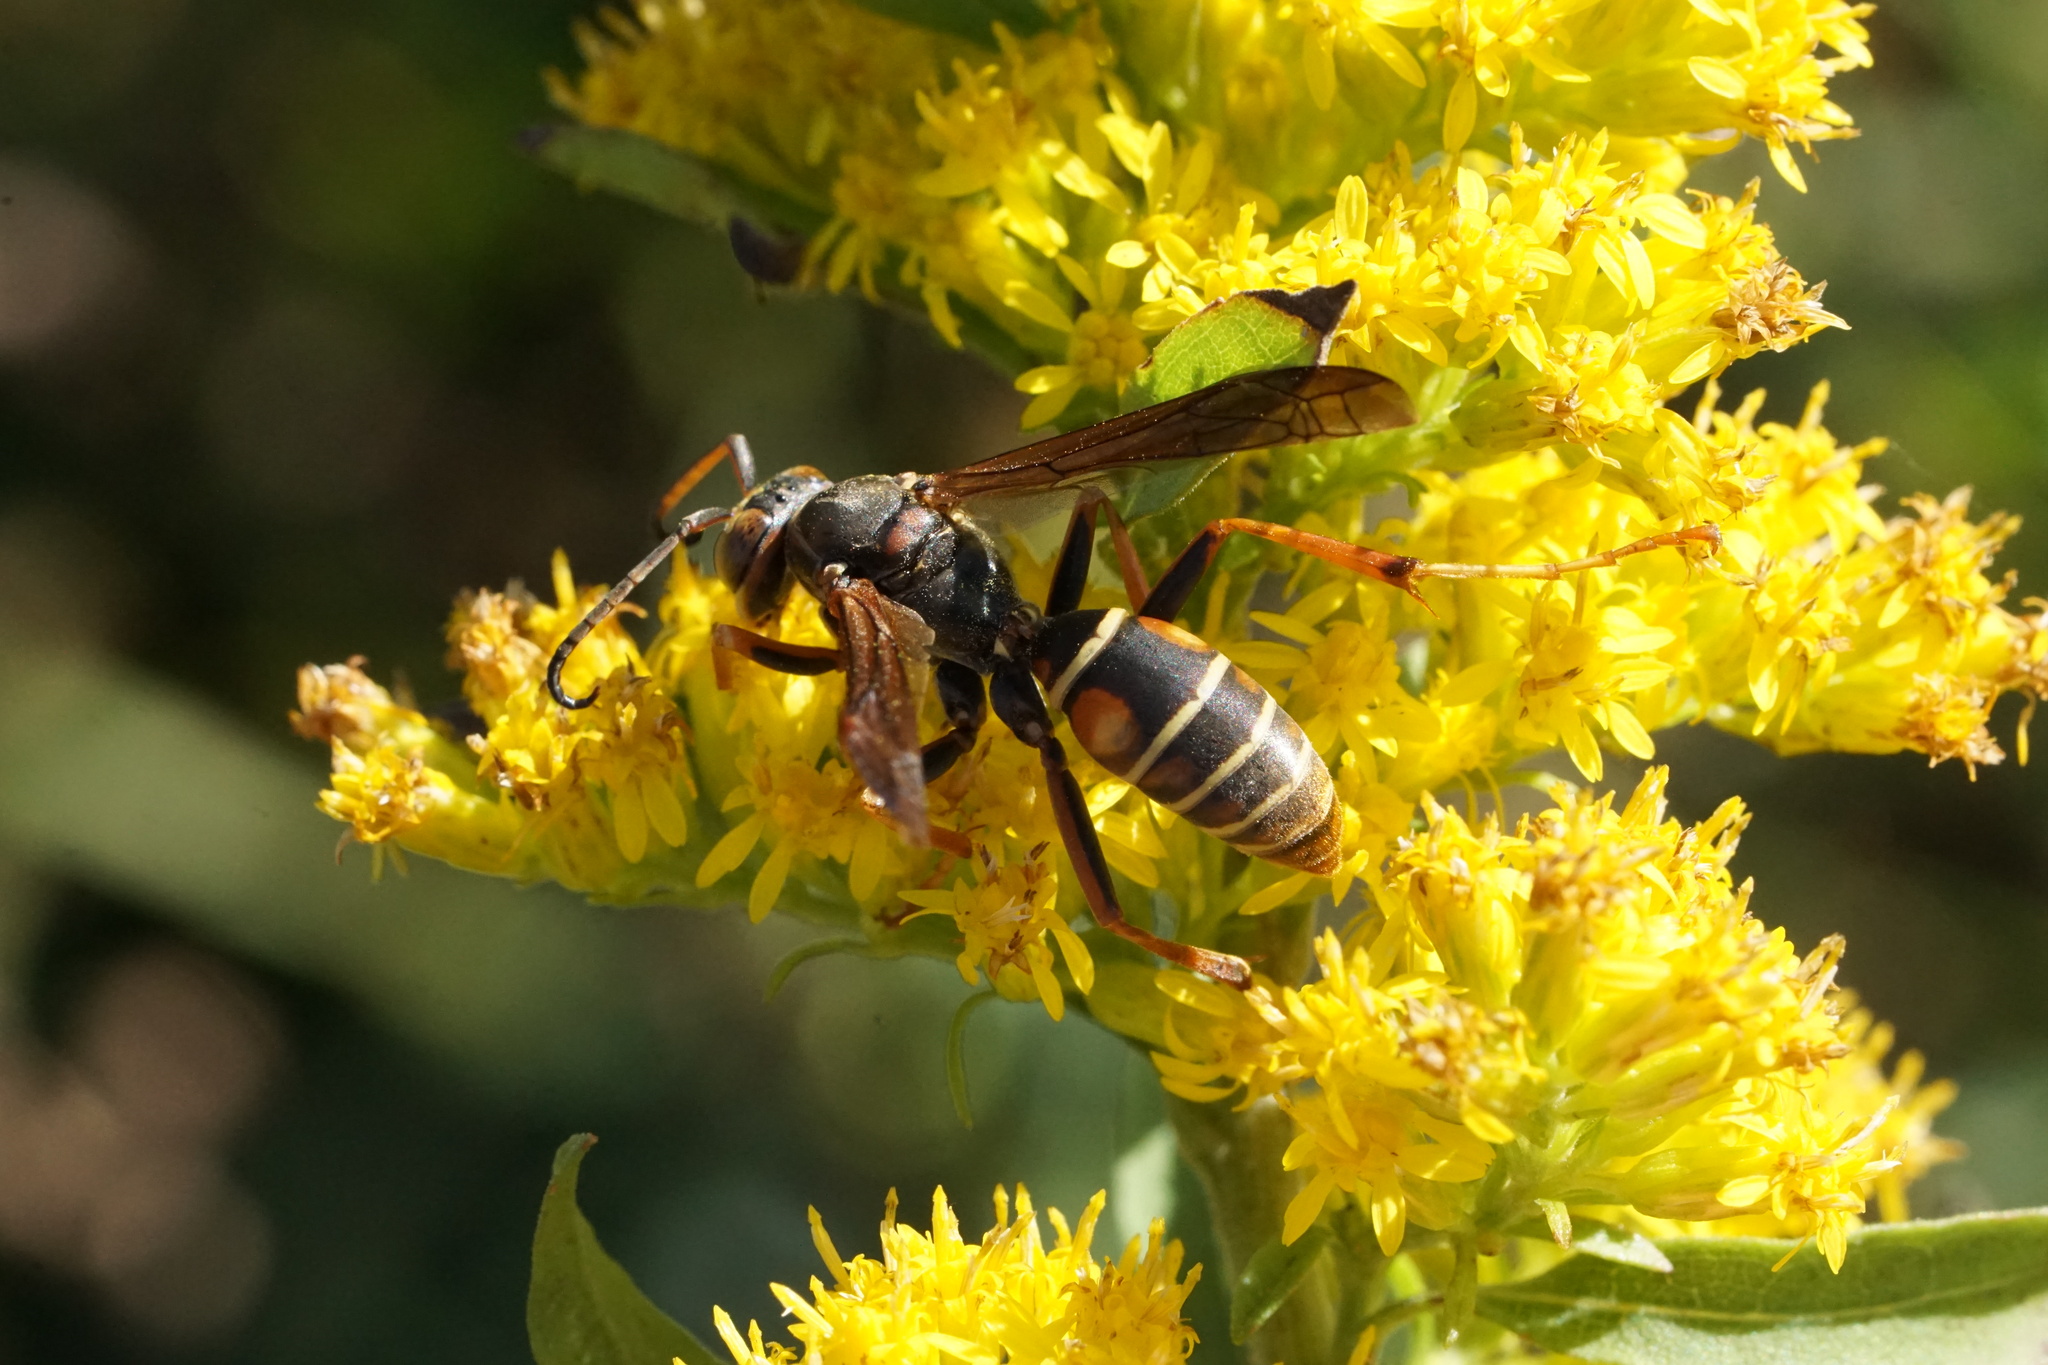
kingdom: Animalia
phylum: Arthropoda
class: Insecta
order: Hymenoptera
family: Eumenidae
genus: Polistes
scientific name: Polistes fuscatus
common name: Dark paper wasp
